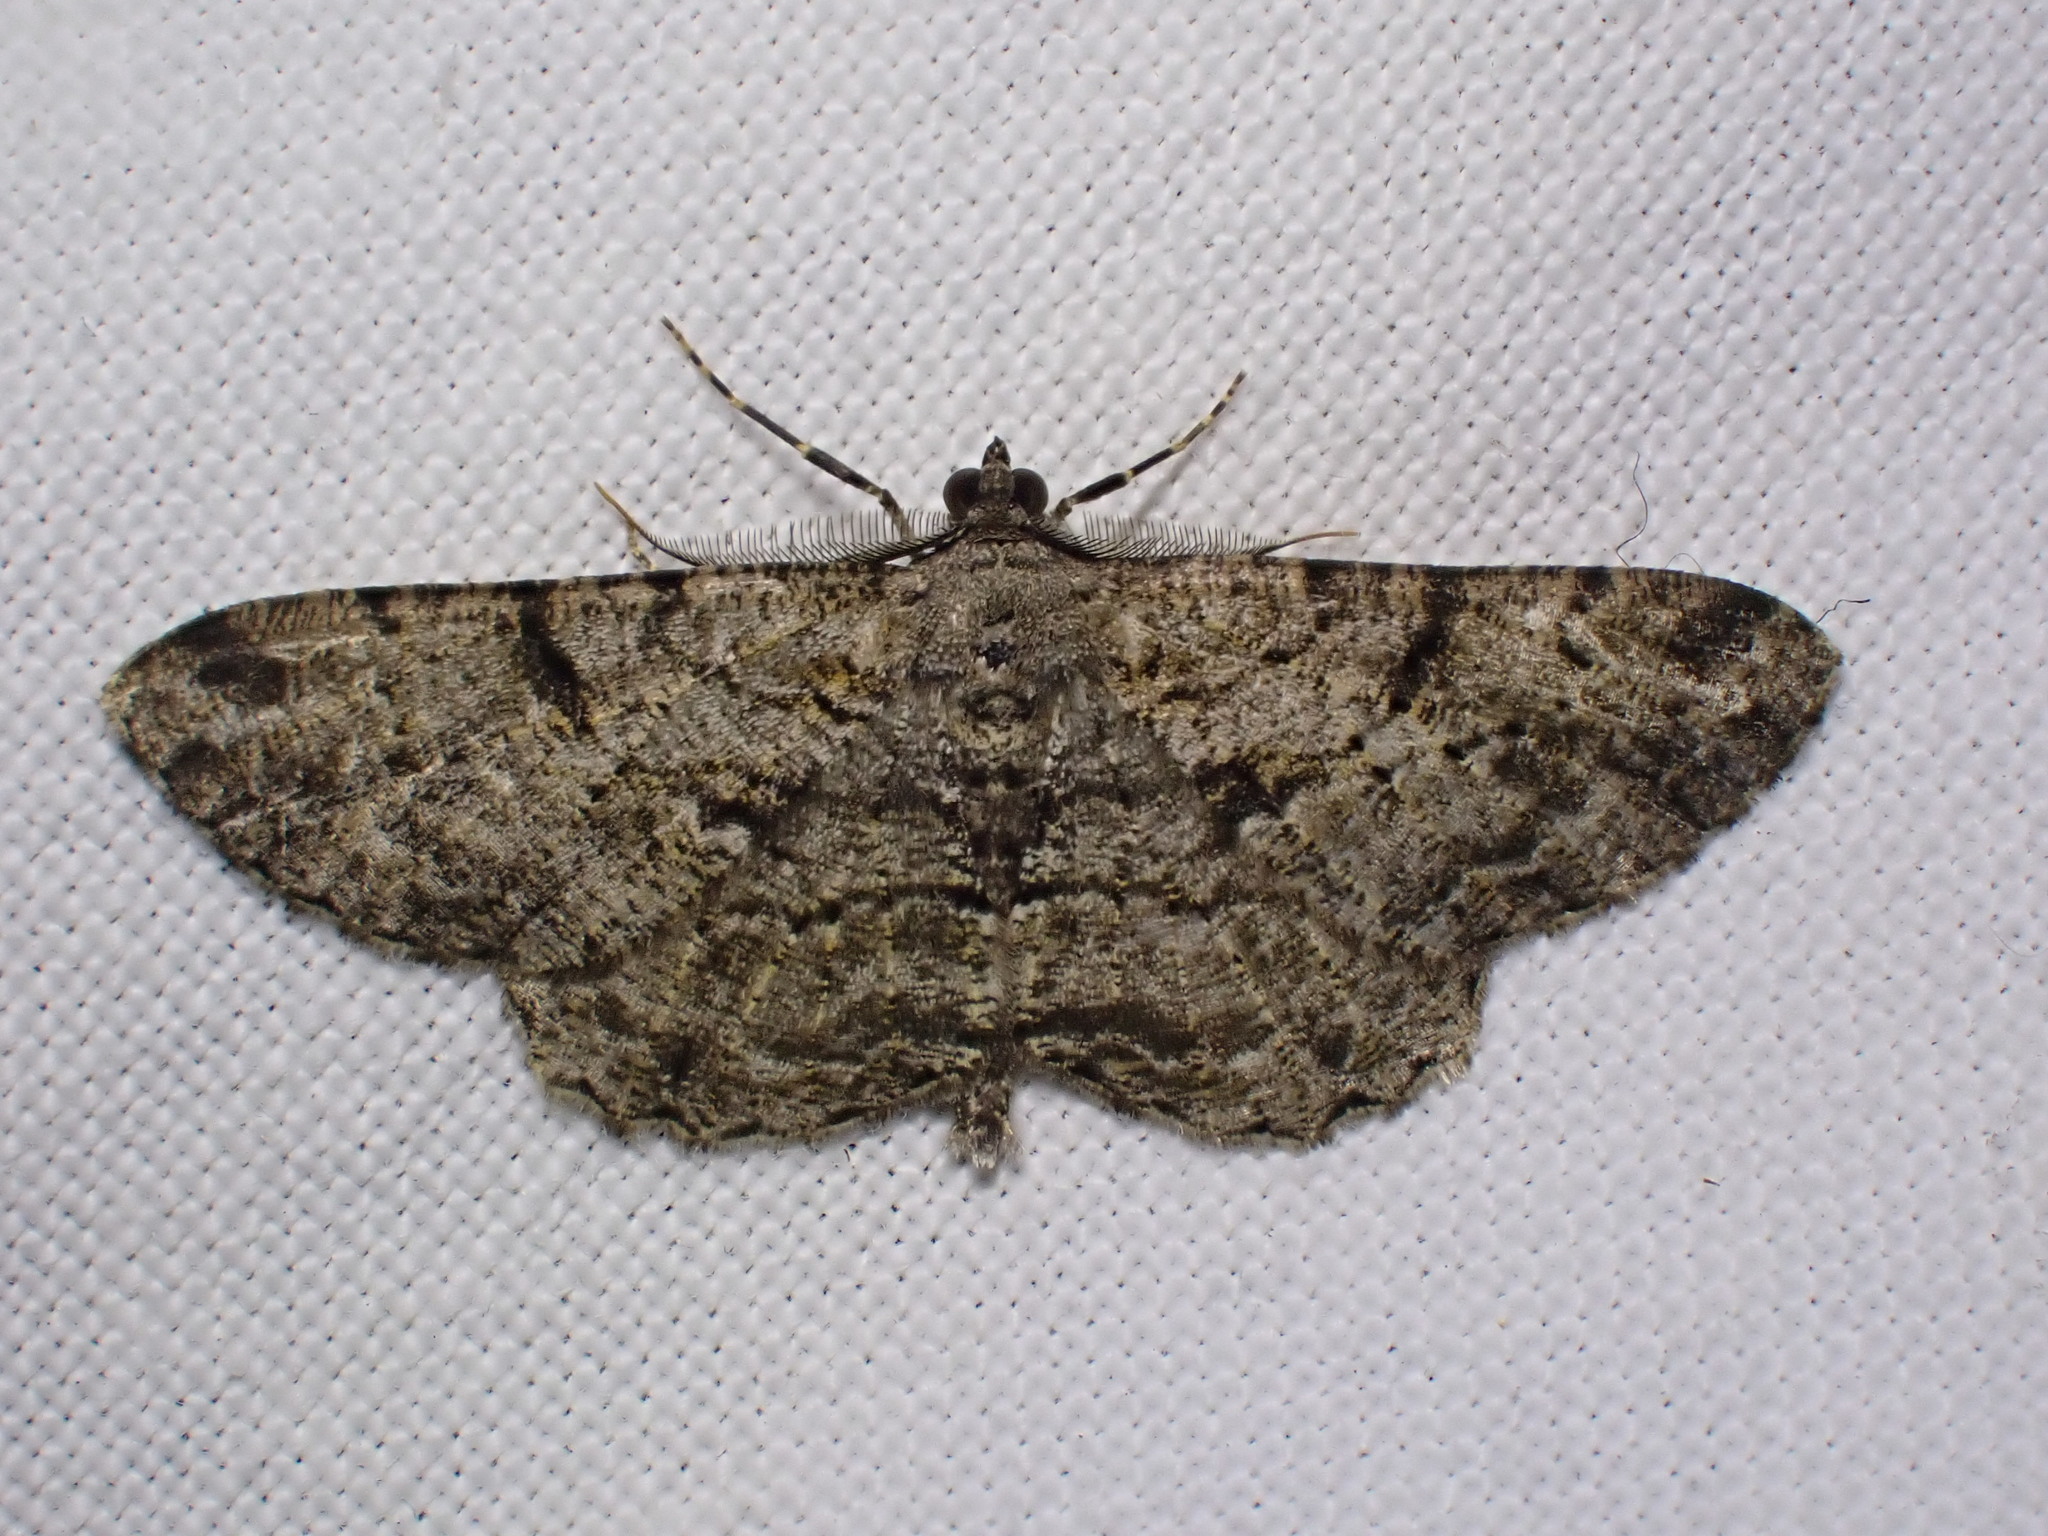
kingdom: Animalia
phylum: Arthropoda
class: Insecta
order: Lepidoptera
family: Geometridae
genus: Peribatodes
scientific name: Peribatodes rhomboidaria
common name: Willow beauty
